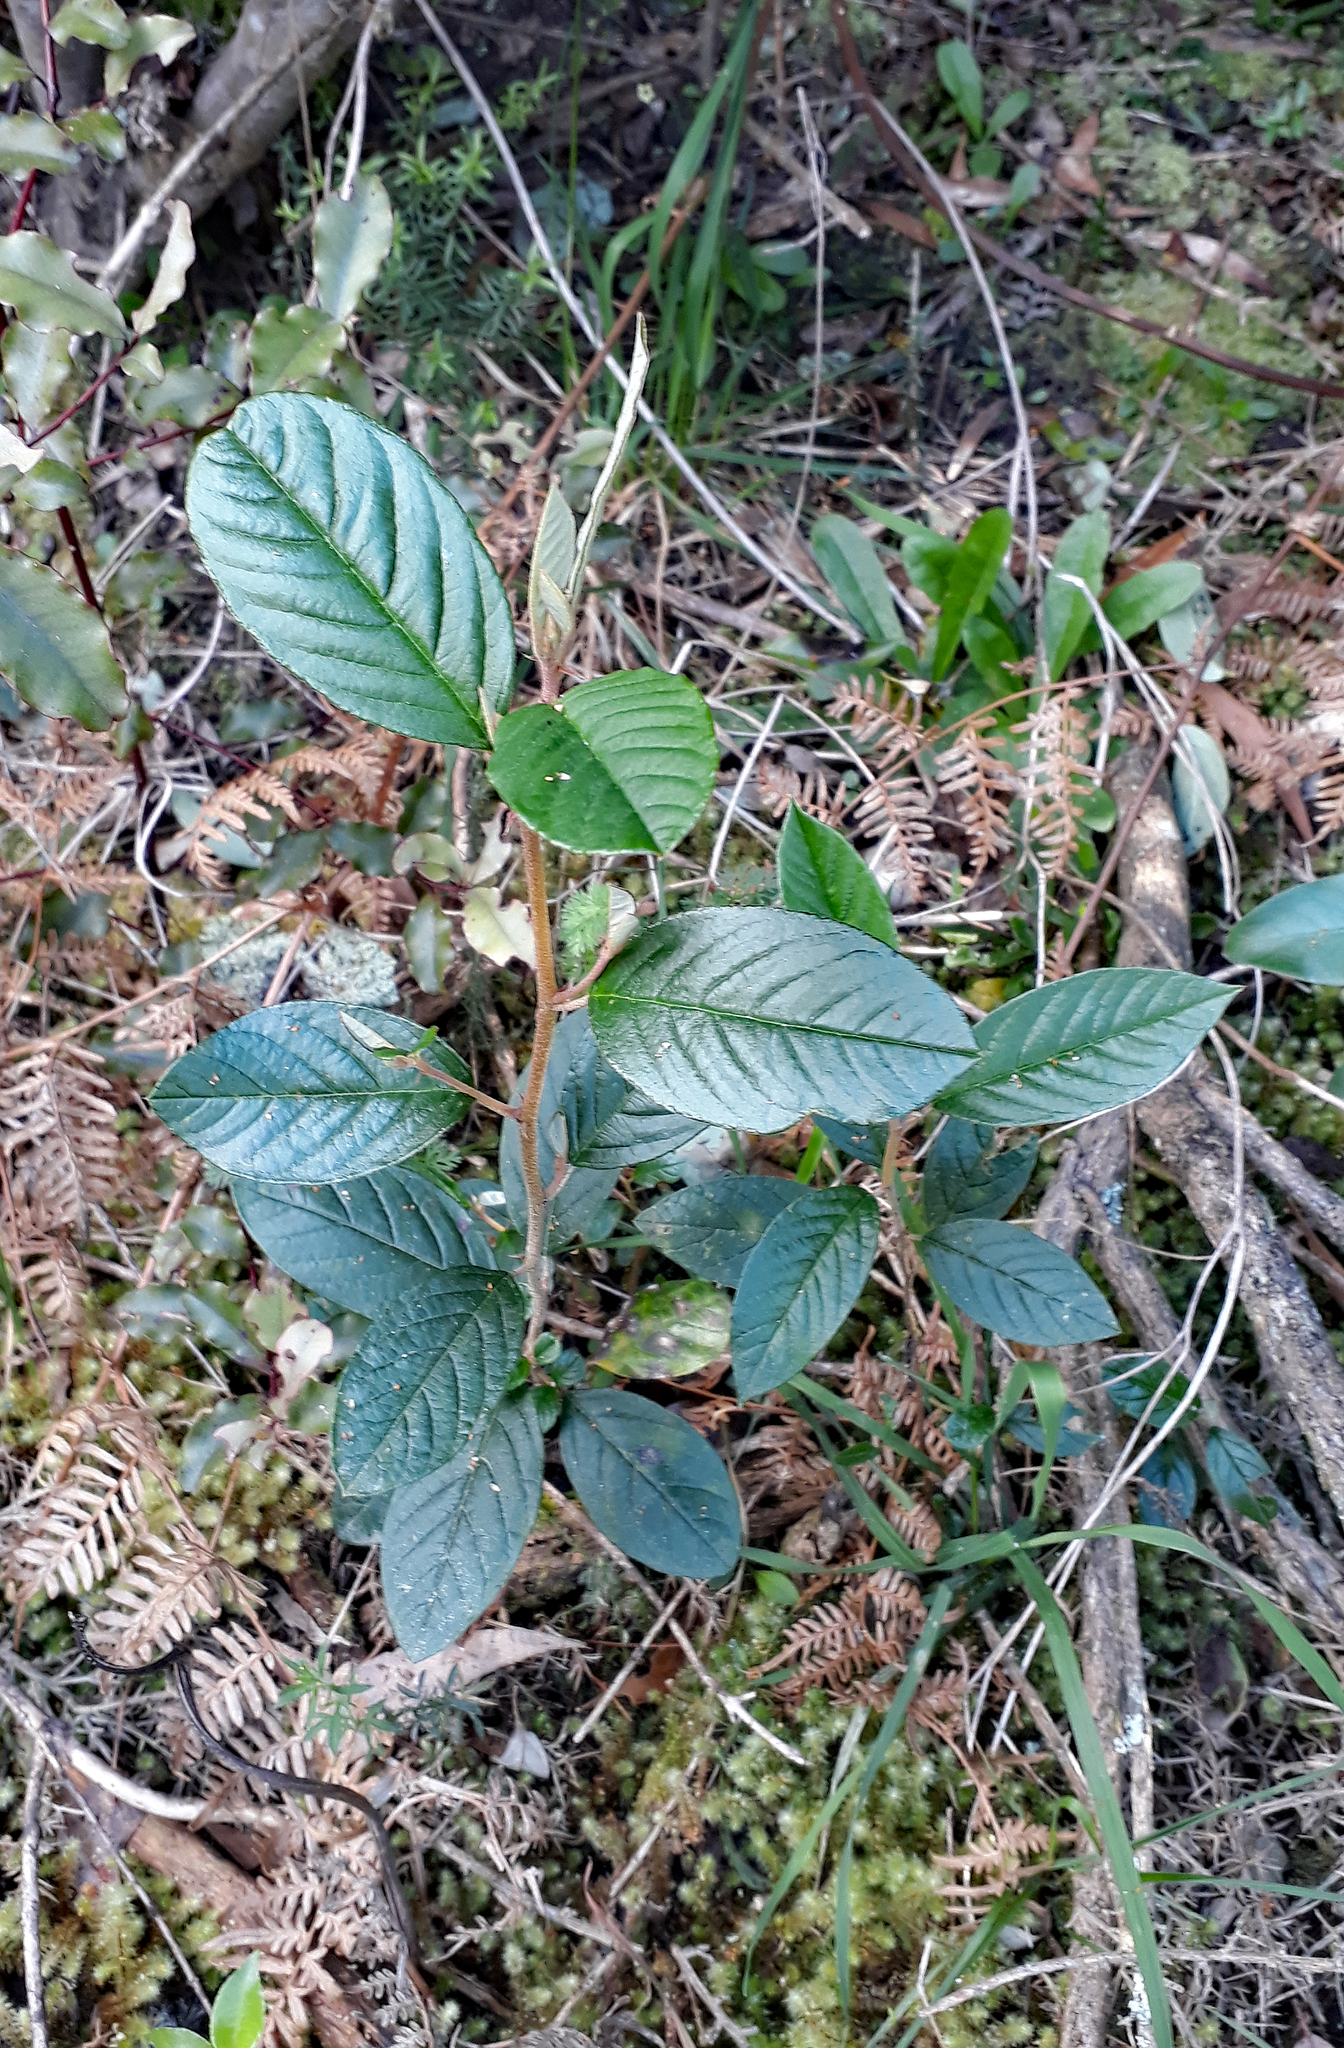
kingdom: Plantae
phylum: Tracheophyta
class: Magnoliopsida
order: Rosales
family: Rhamnaceae
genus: Pomaderris
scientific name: Pomaderris hamiltonii
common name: Pale-flowered kumarahou
